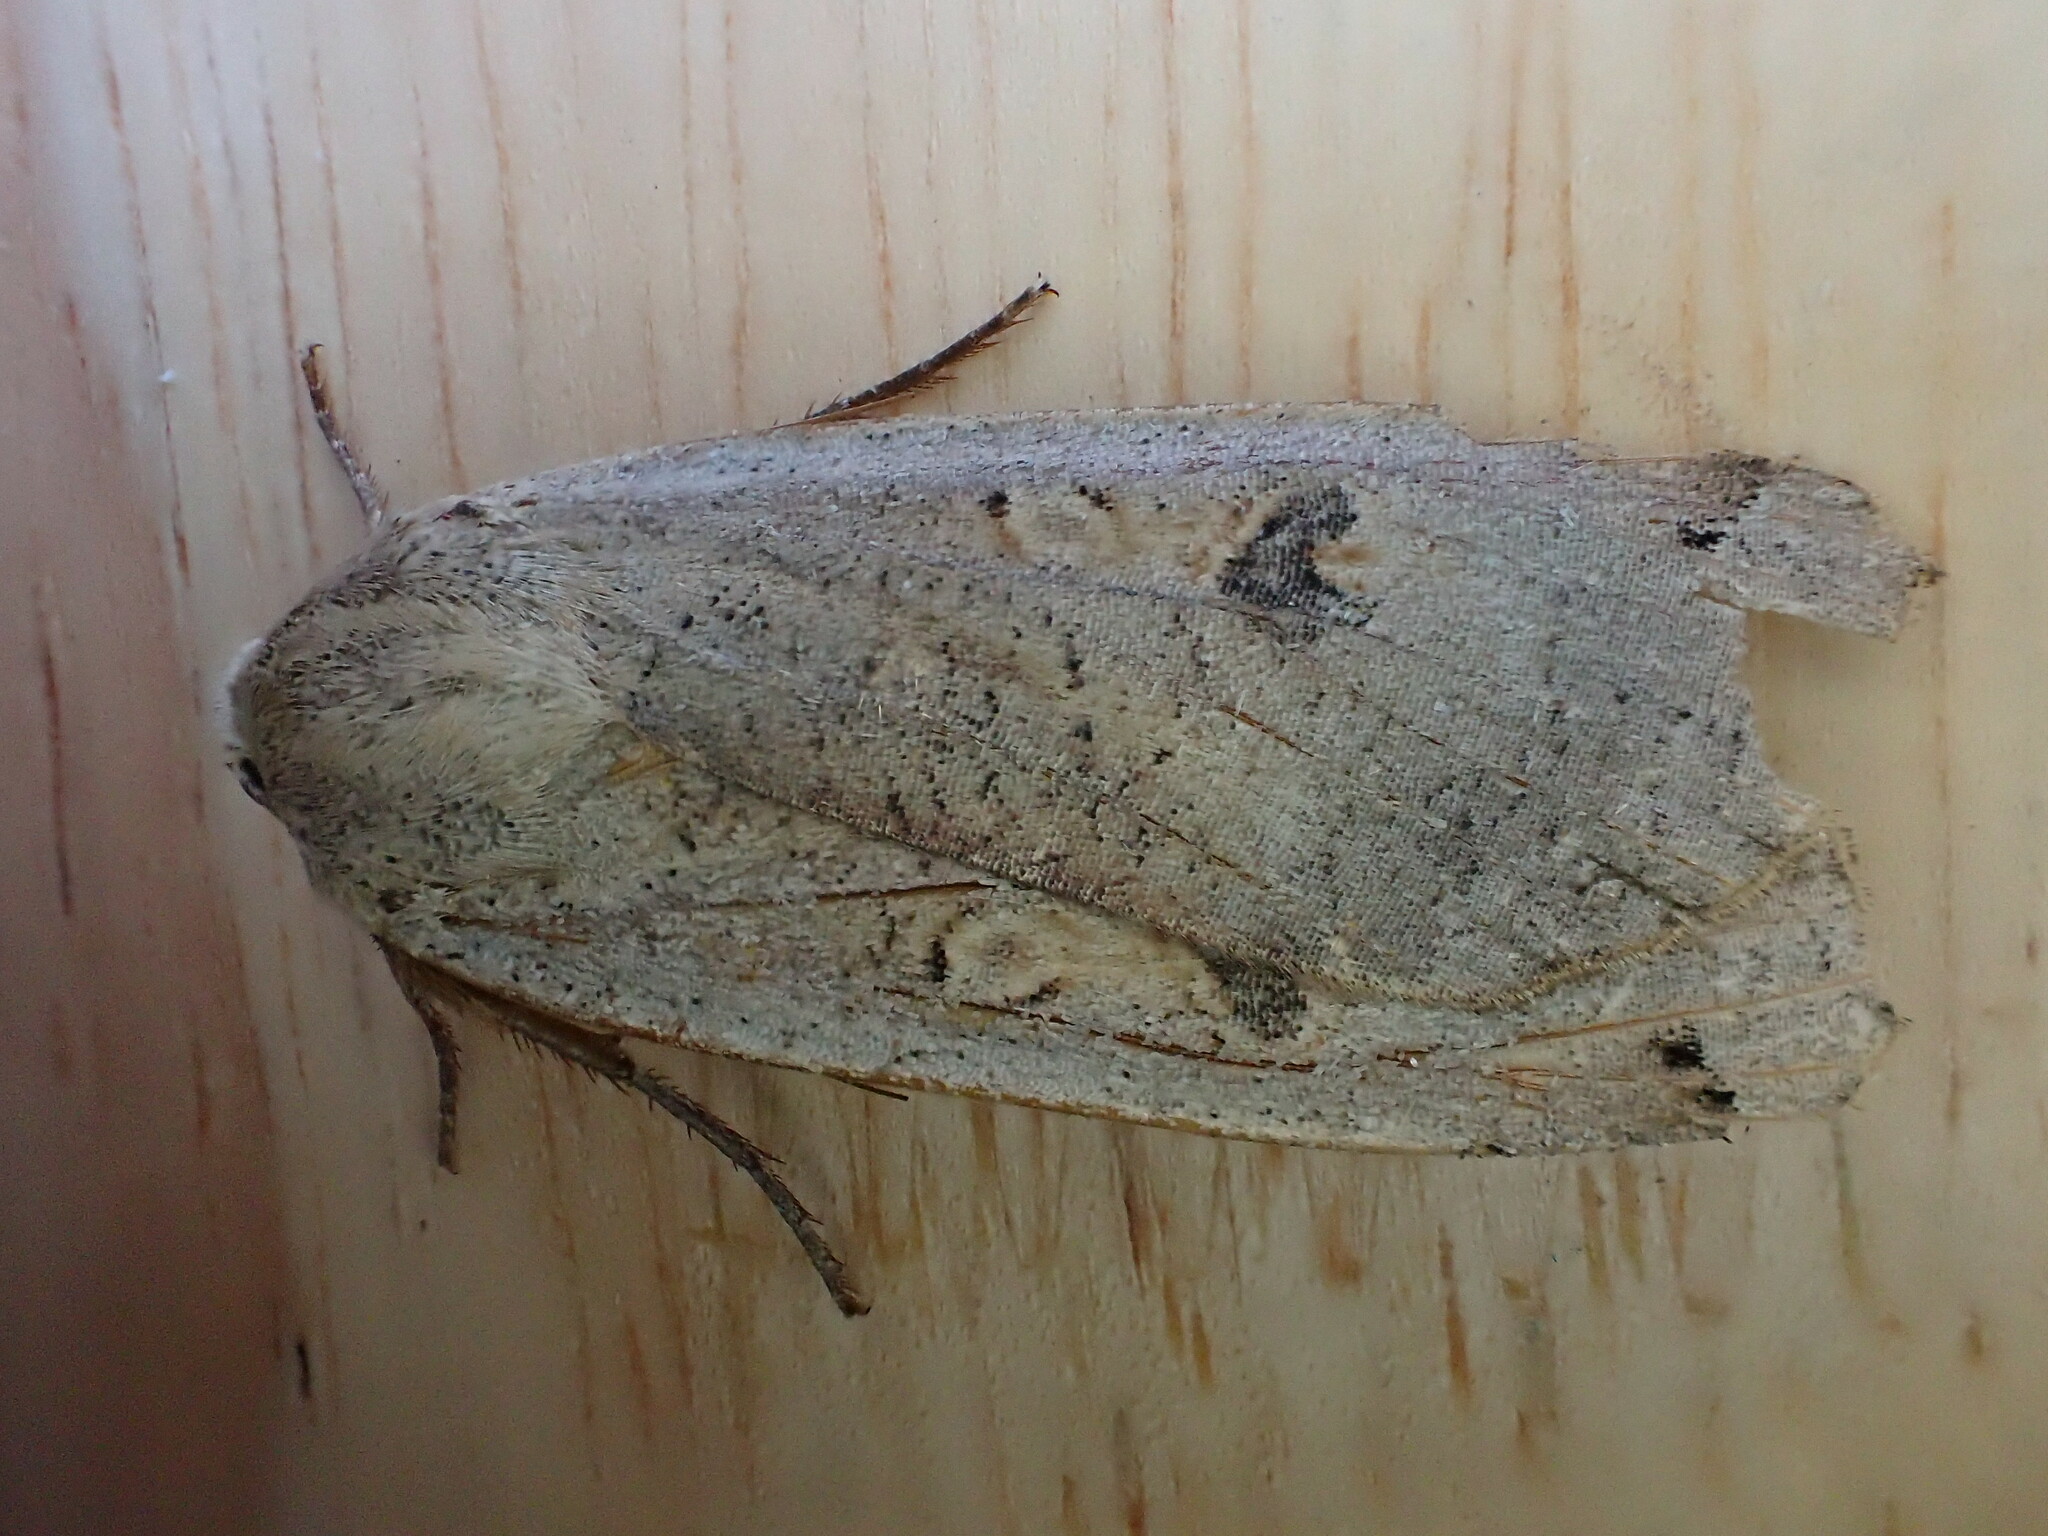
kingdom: Animalia
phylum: Arthropoda
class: Insecta
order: Lepidoptera
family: Noctuidae
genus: Noctua
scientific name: Noctua pronuba
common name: Large yellow underwing
